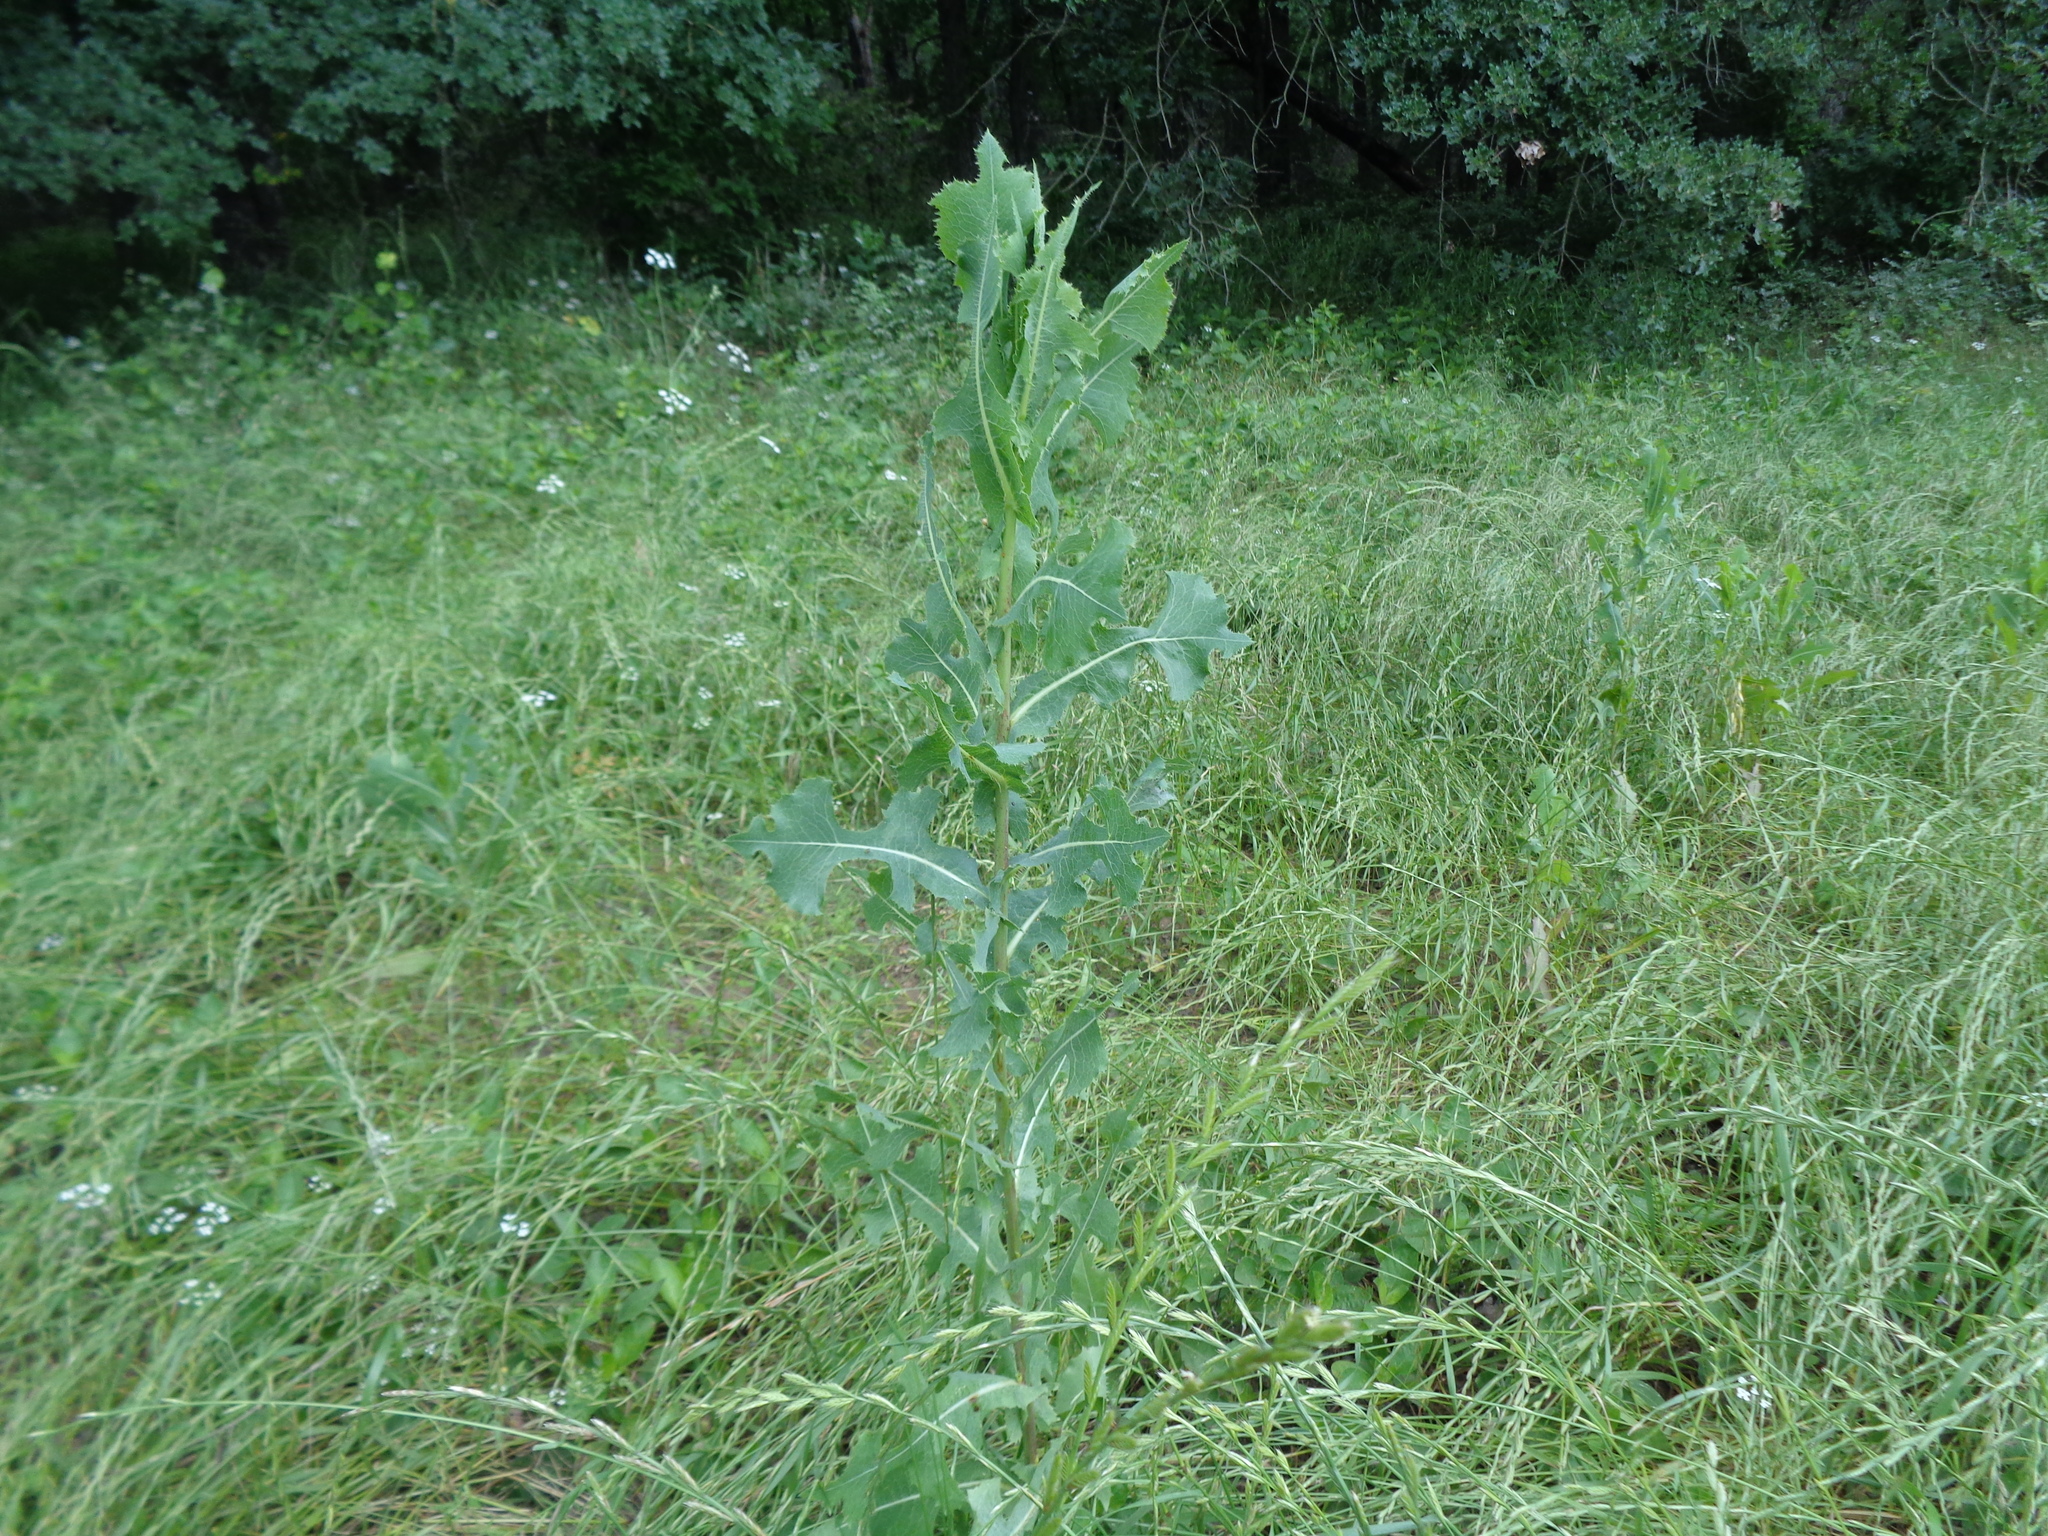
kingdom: Plantae
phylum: Tracheophyta
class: Magnoliopsida
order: Asterales
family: Asteraceae
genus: Lactuca
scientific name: Lactuca
